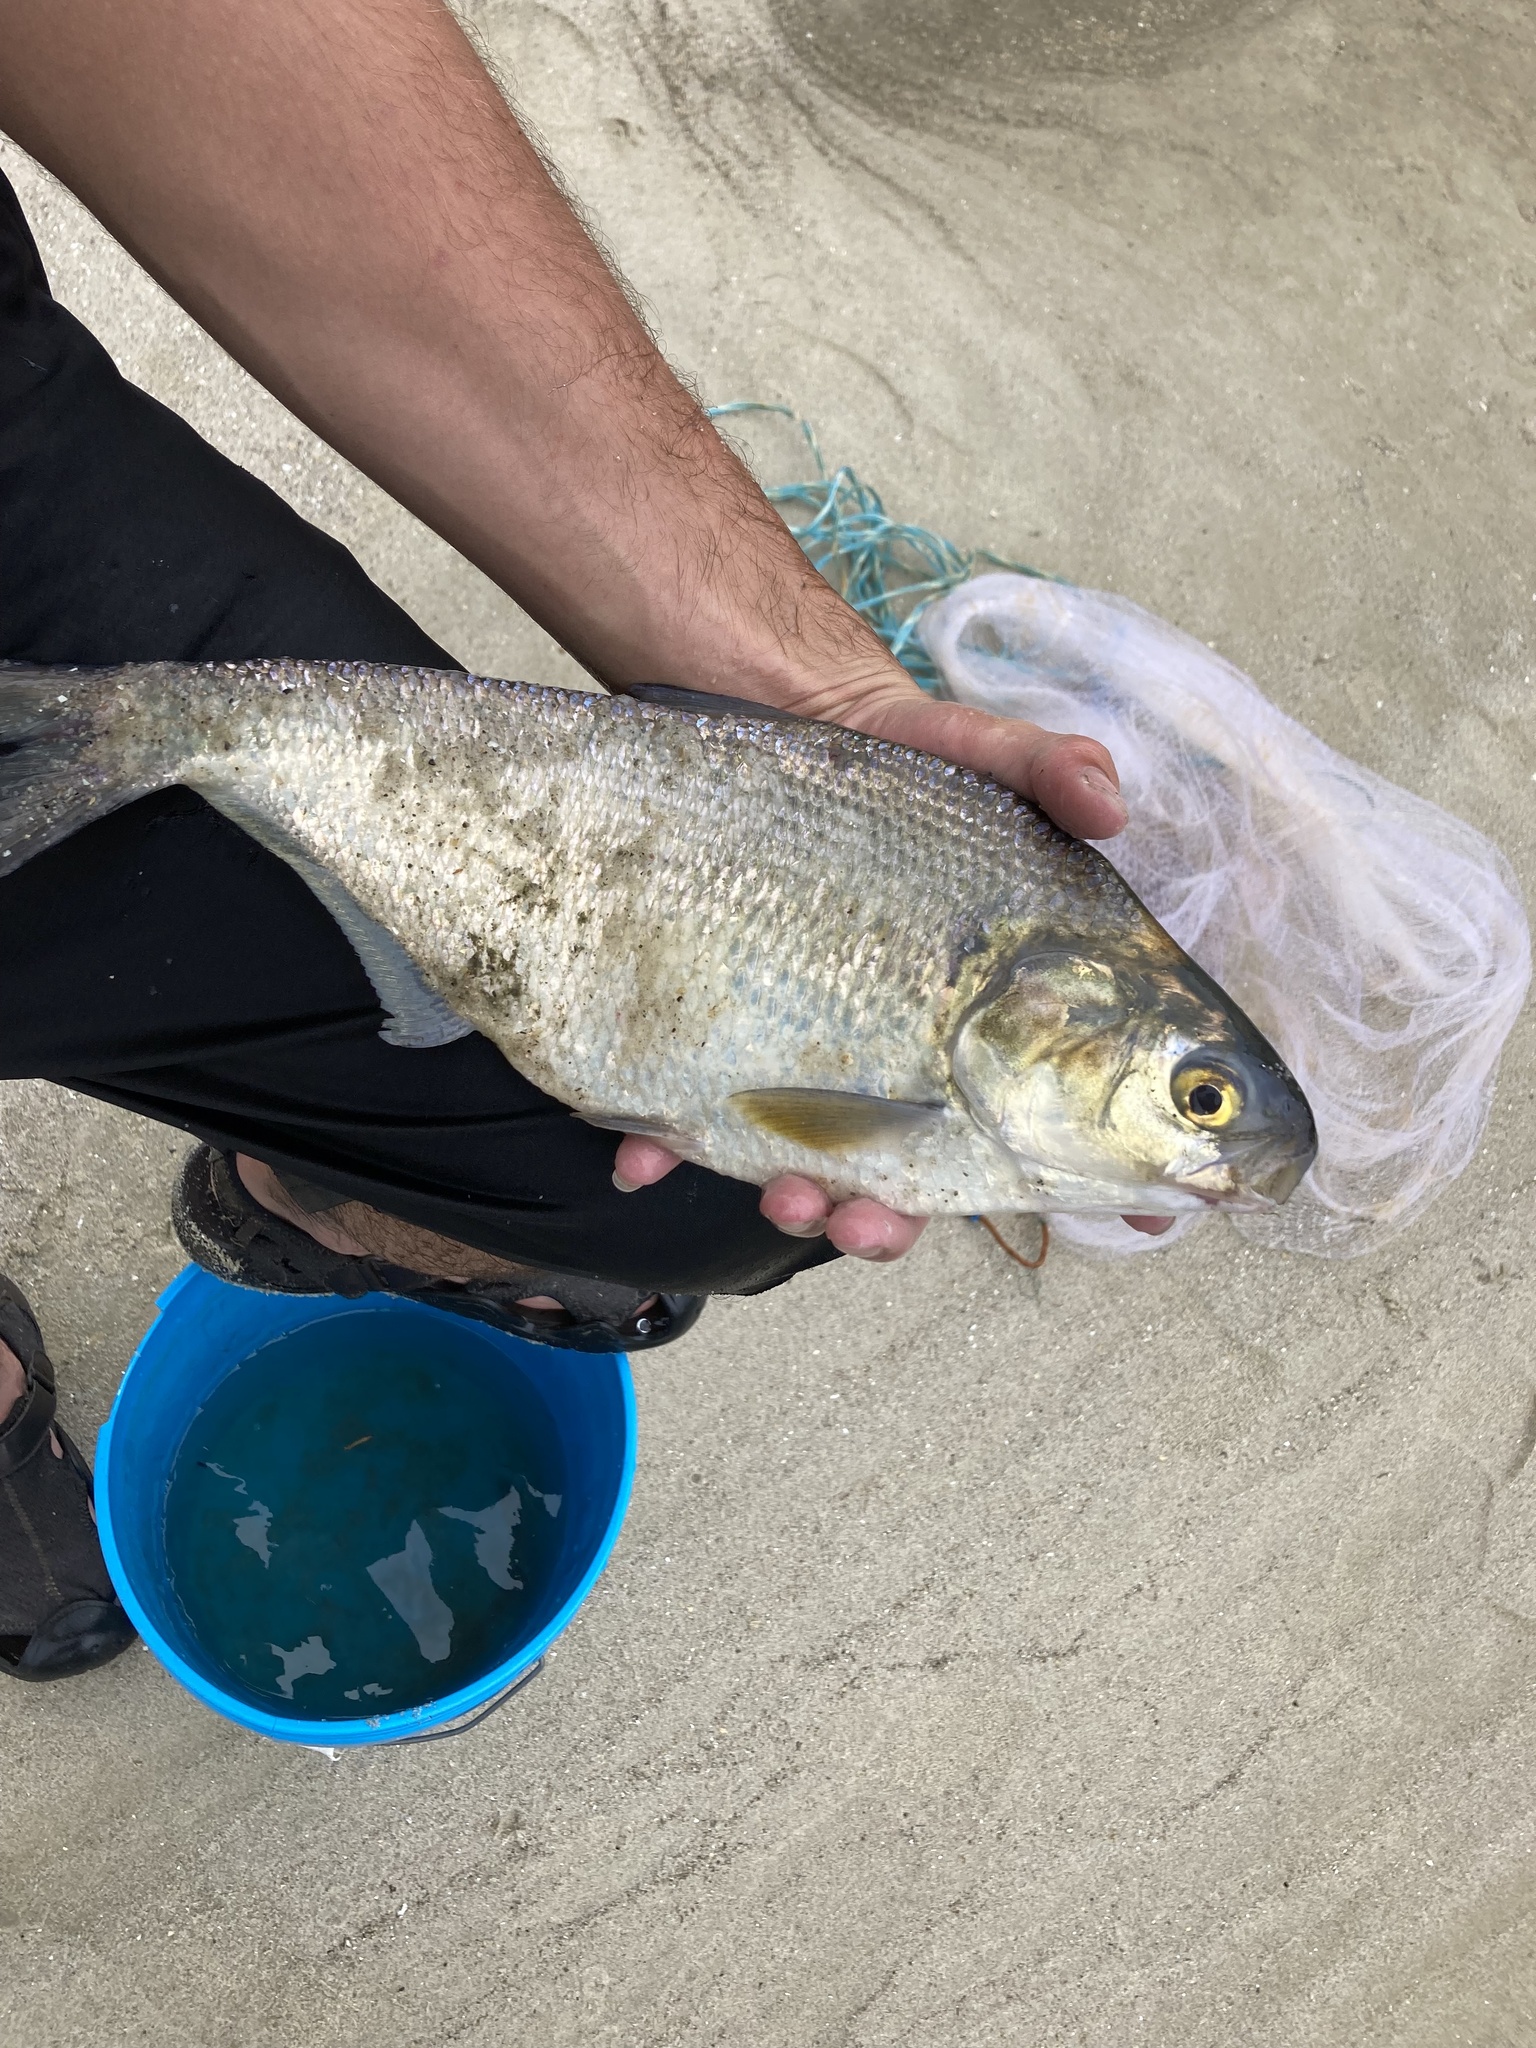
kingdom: Animalia
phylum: Chordata
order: Clupeiformes
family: Clupeidae
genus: Dorosoma
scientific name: Dorosoma cepedianum
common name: Gizzard shad
